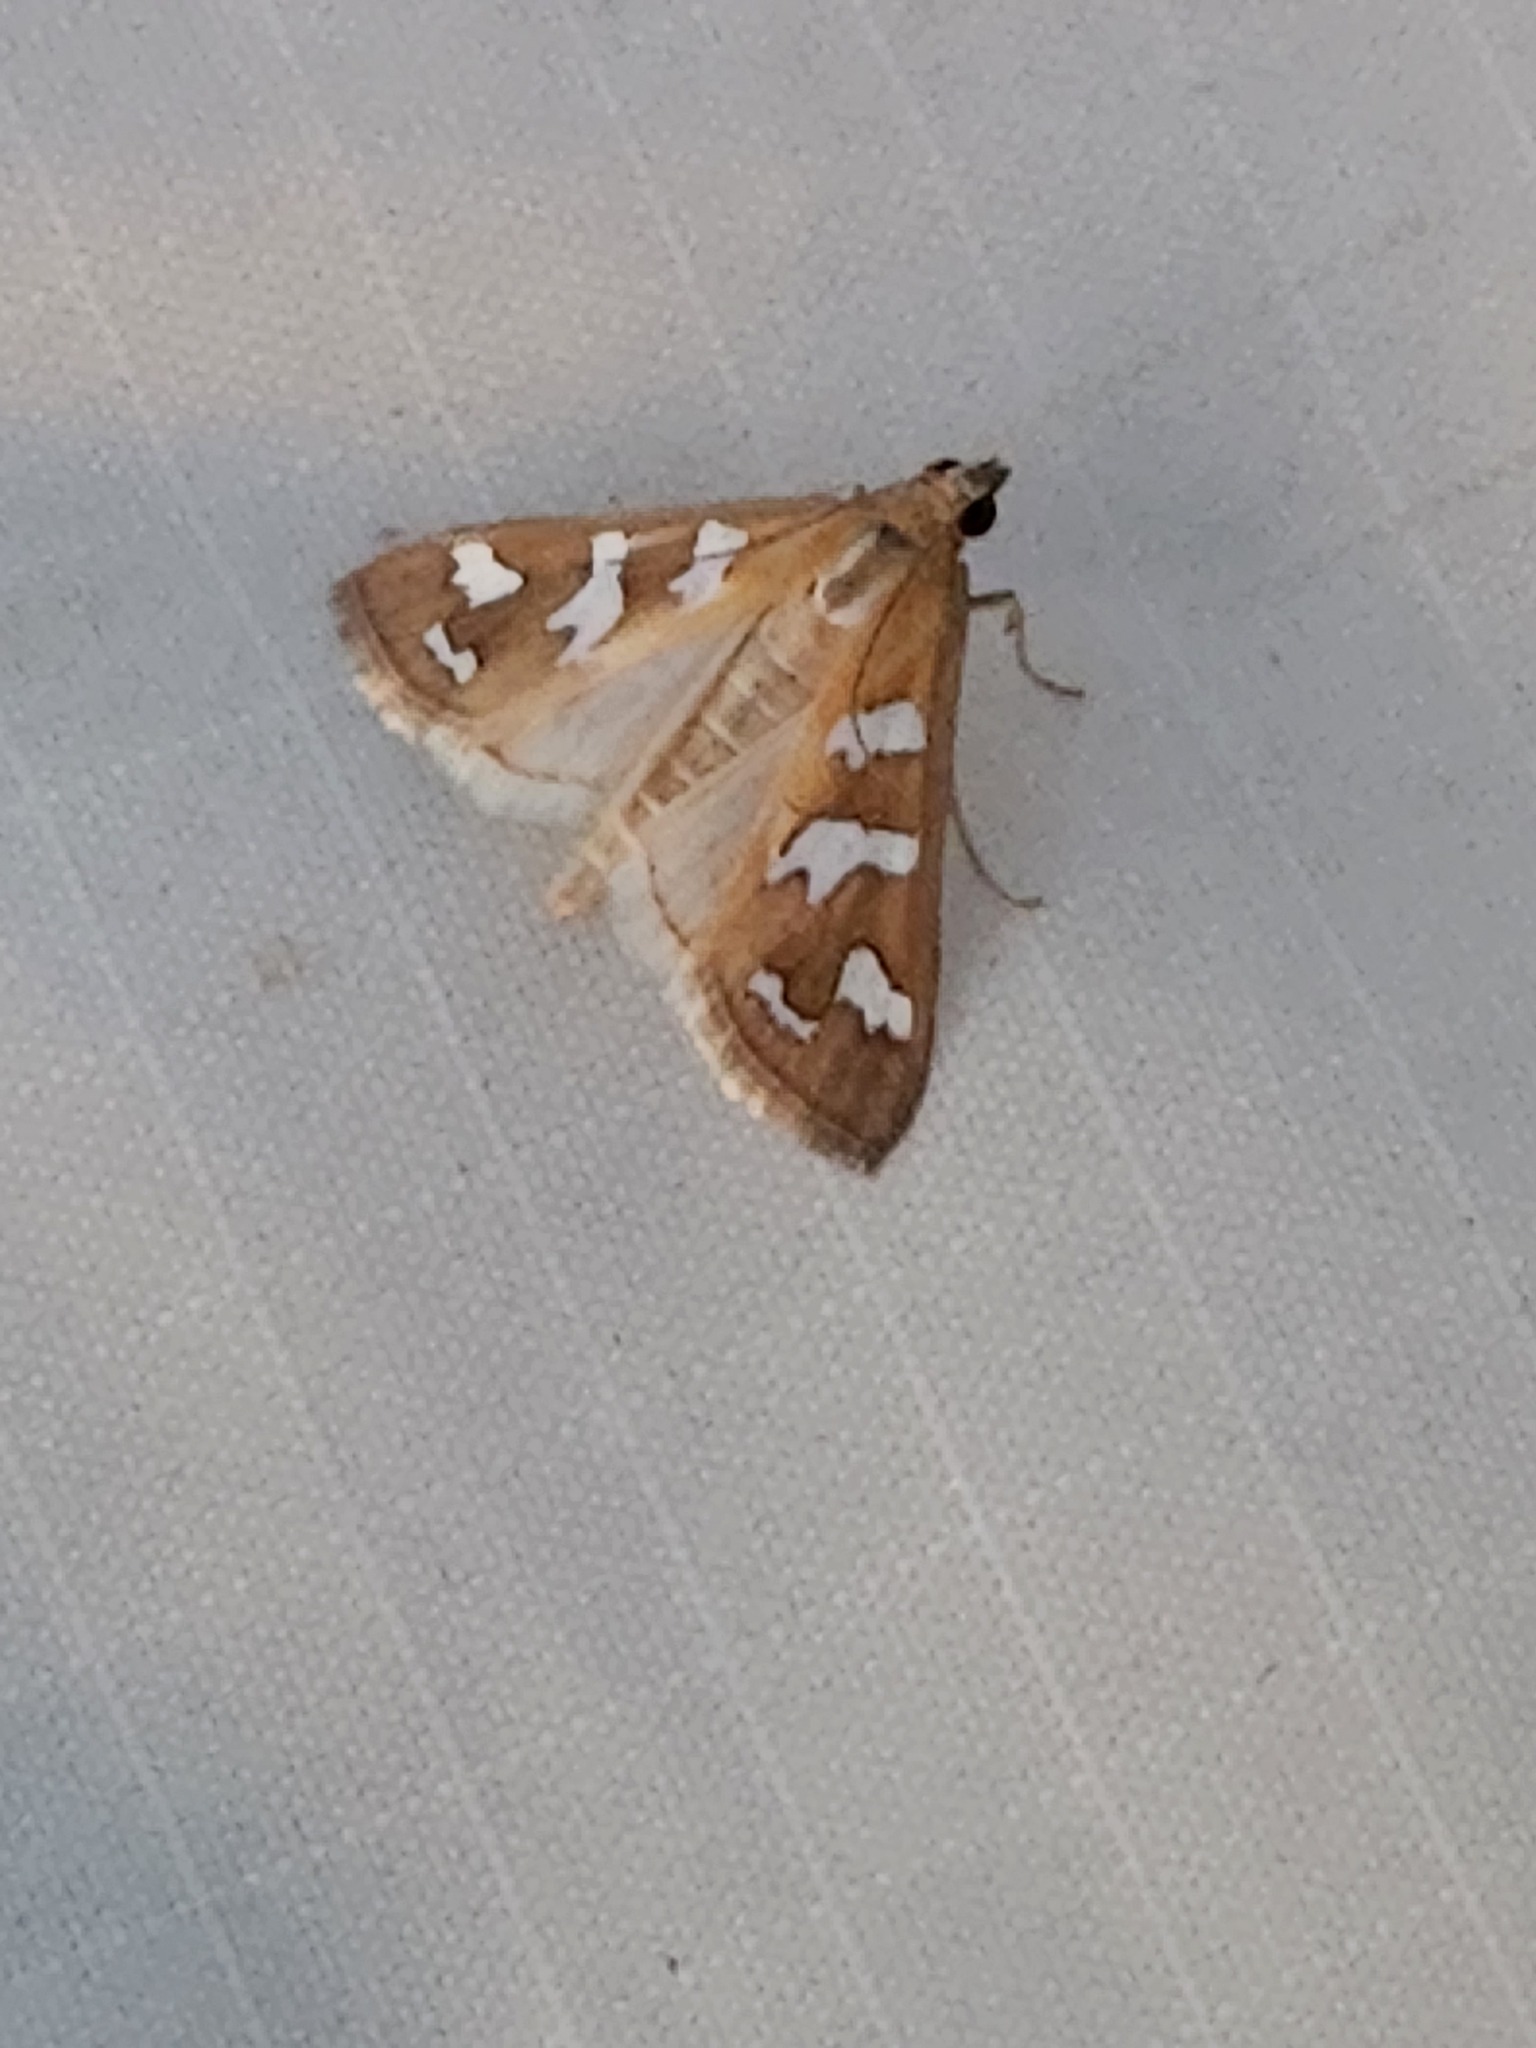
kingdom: Animalia
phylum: Arthropoda
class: Insecta
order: Lepidoptera
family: Crambidae
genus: Diastictis
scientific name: Diastictis fracturalis
